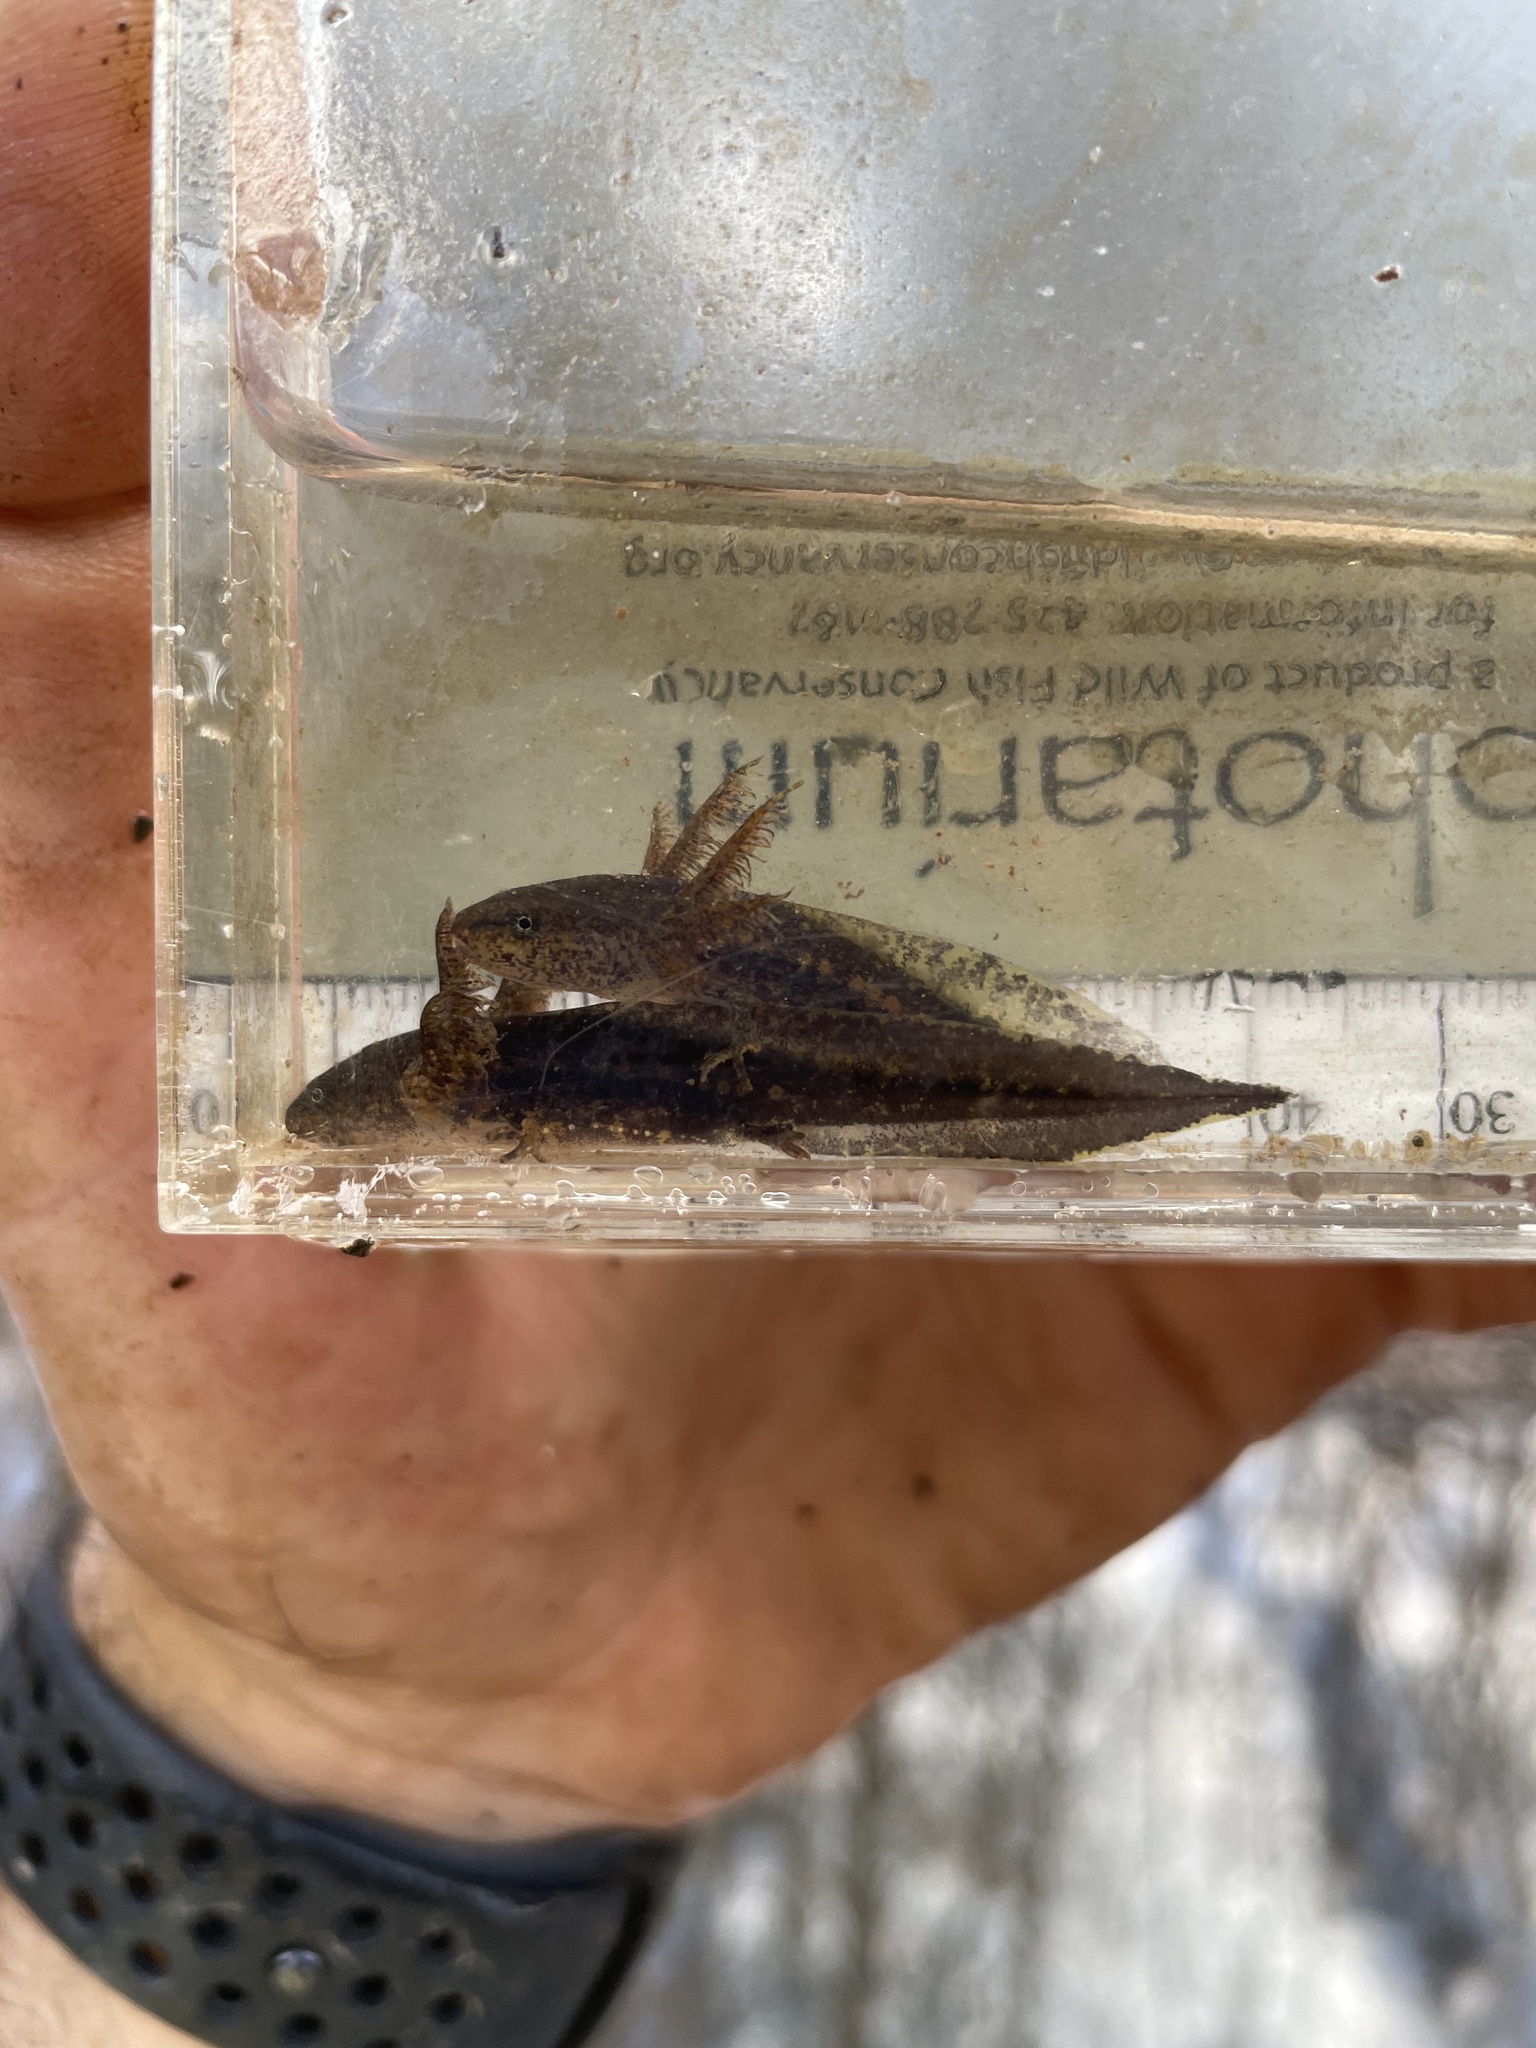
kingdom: Animalia
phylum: Chordata
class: Amphibia
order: Caudata
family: Ambystomatidae
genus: Ambystoma
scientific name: Ambystoma opacum
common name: Marbled salamander
